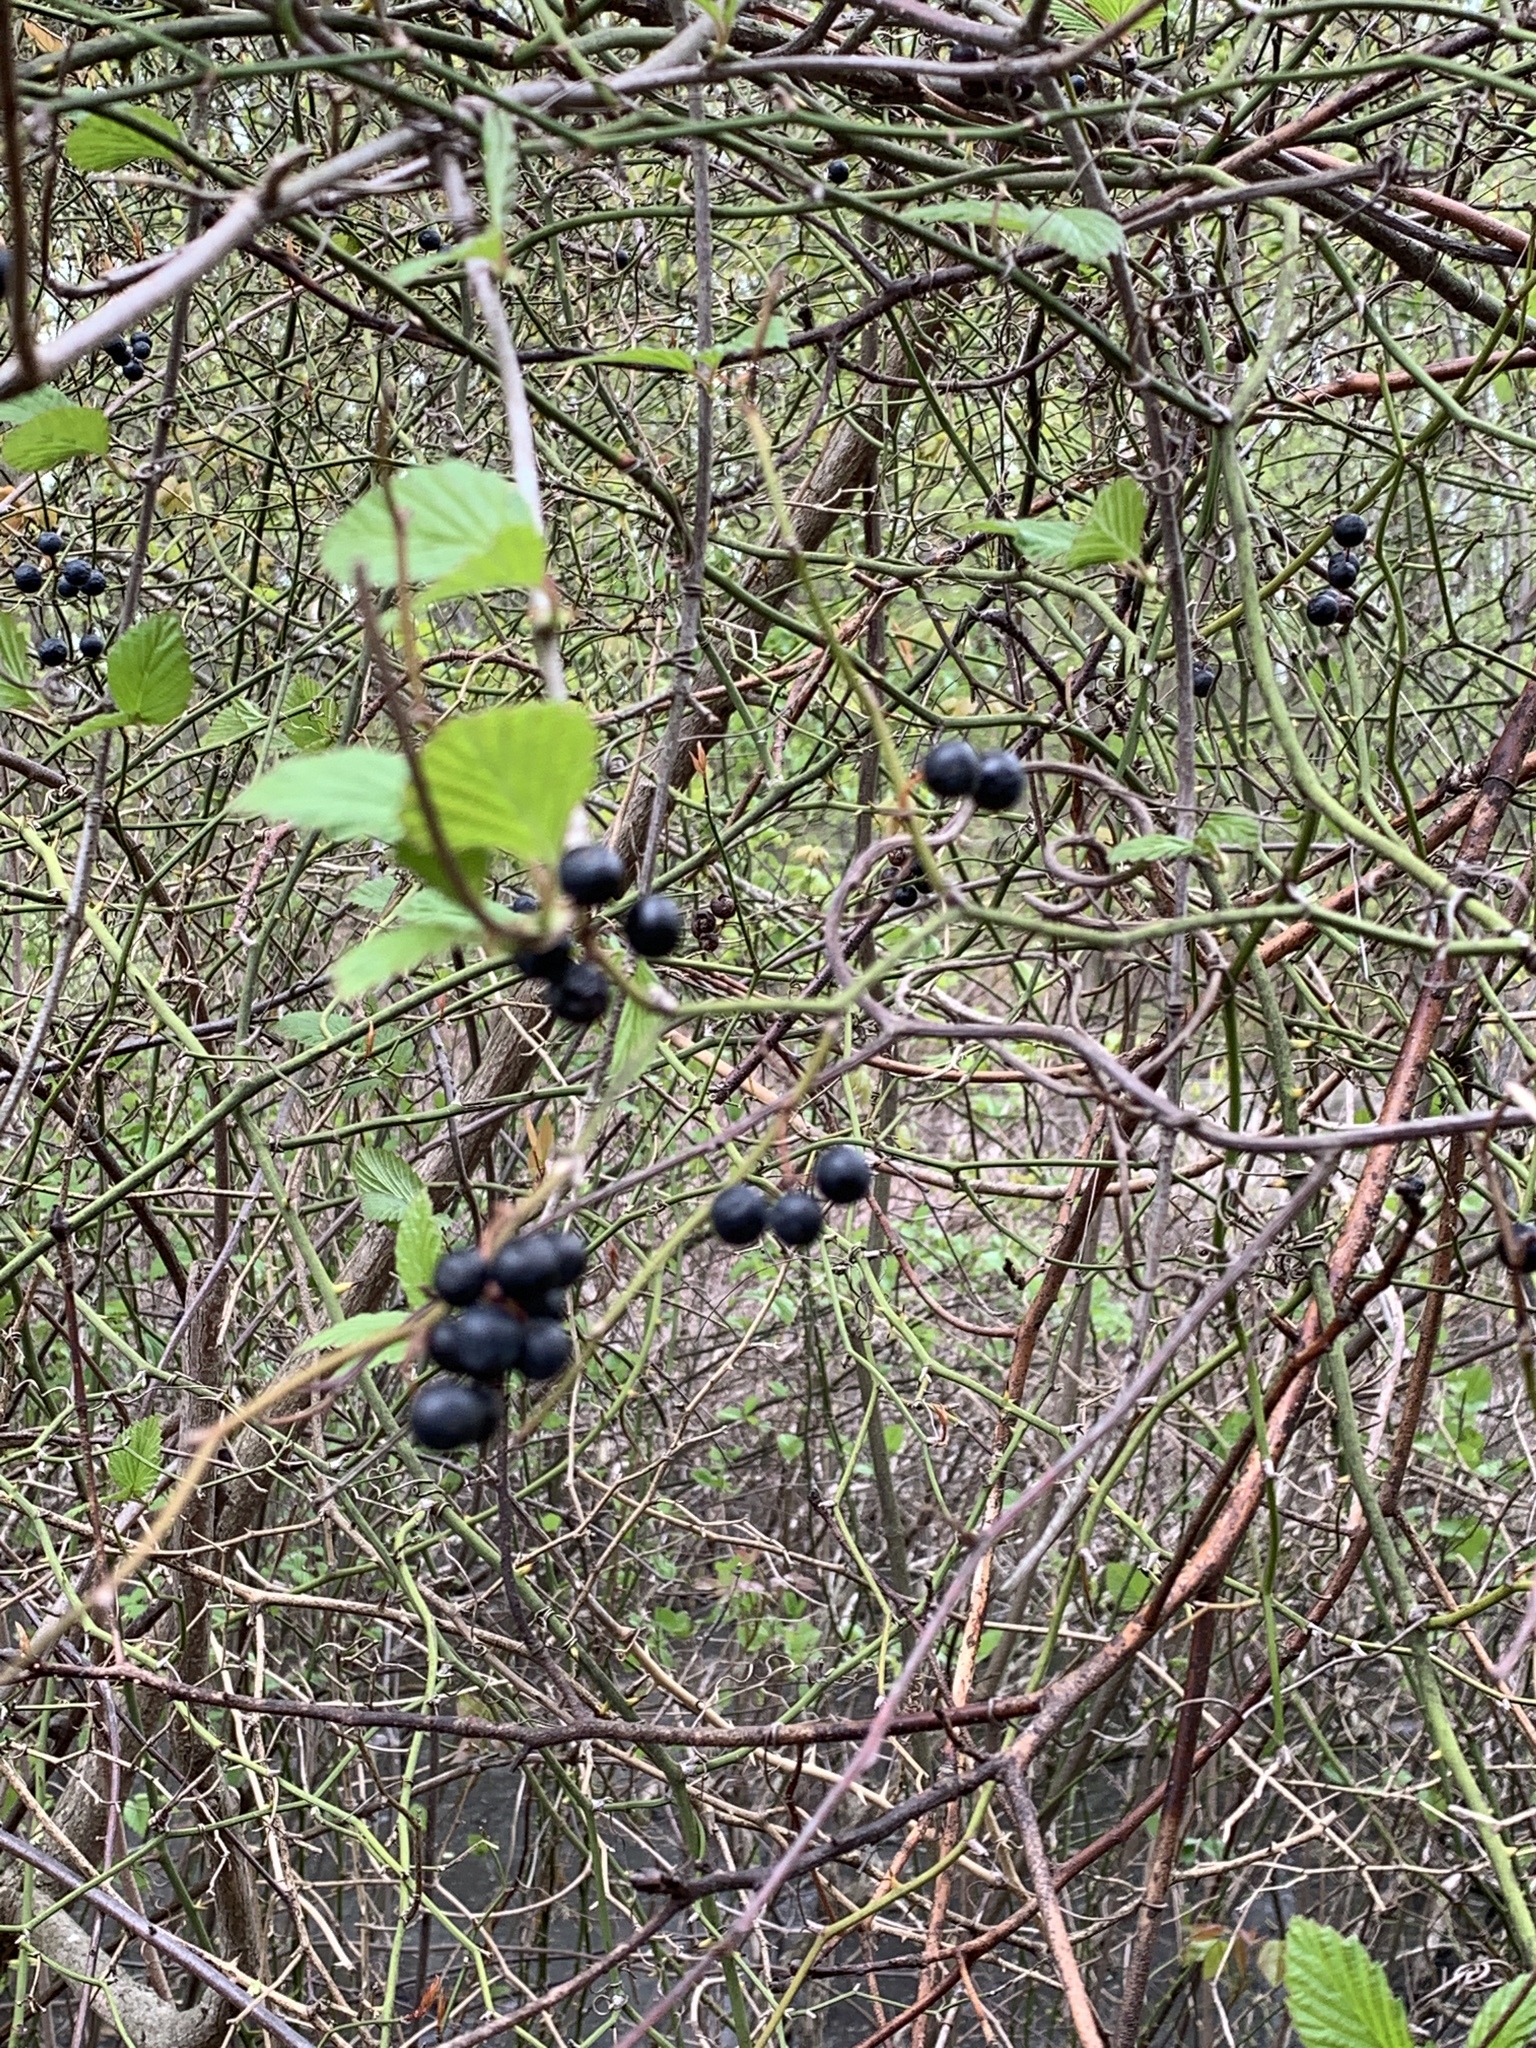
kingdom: Plantae
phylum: Tracheophyta
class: Liliopsida
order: Liliales
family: Smilacaceae
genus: Smilax
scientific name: Smilax rotundifolia
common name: Bullbriar
